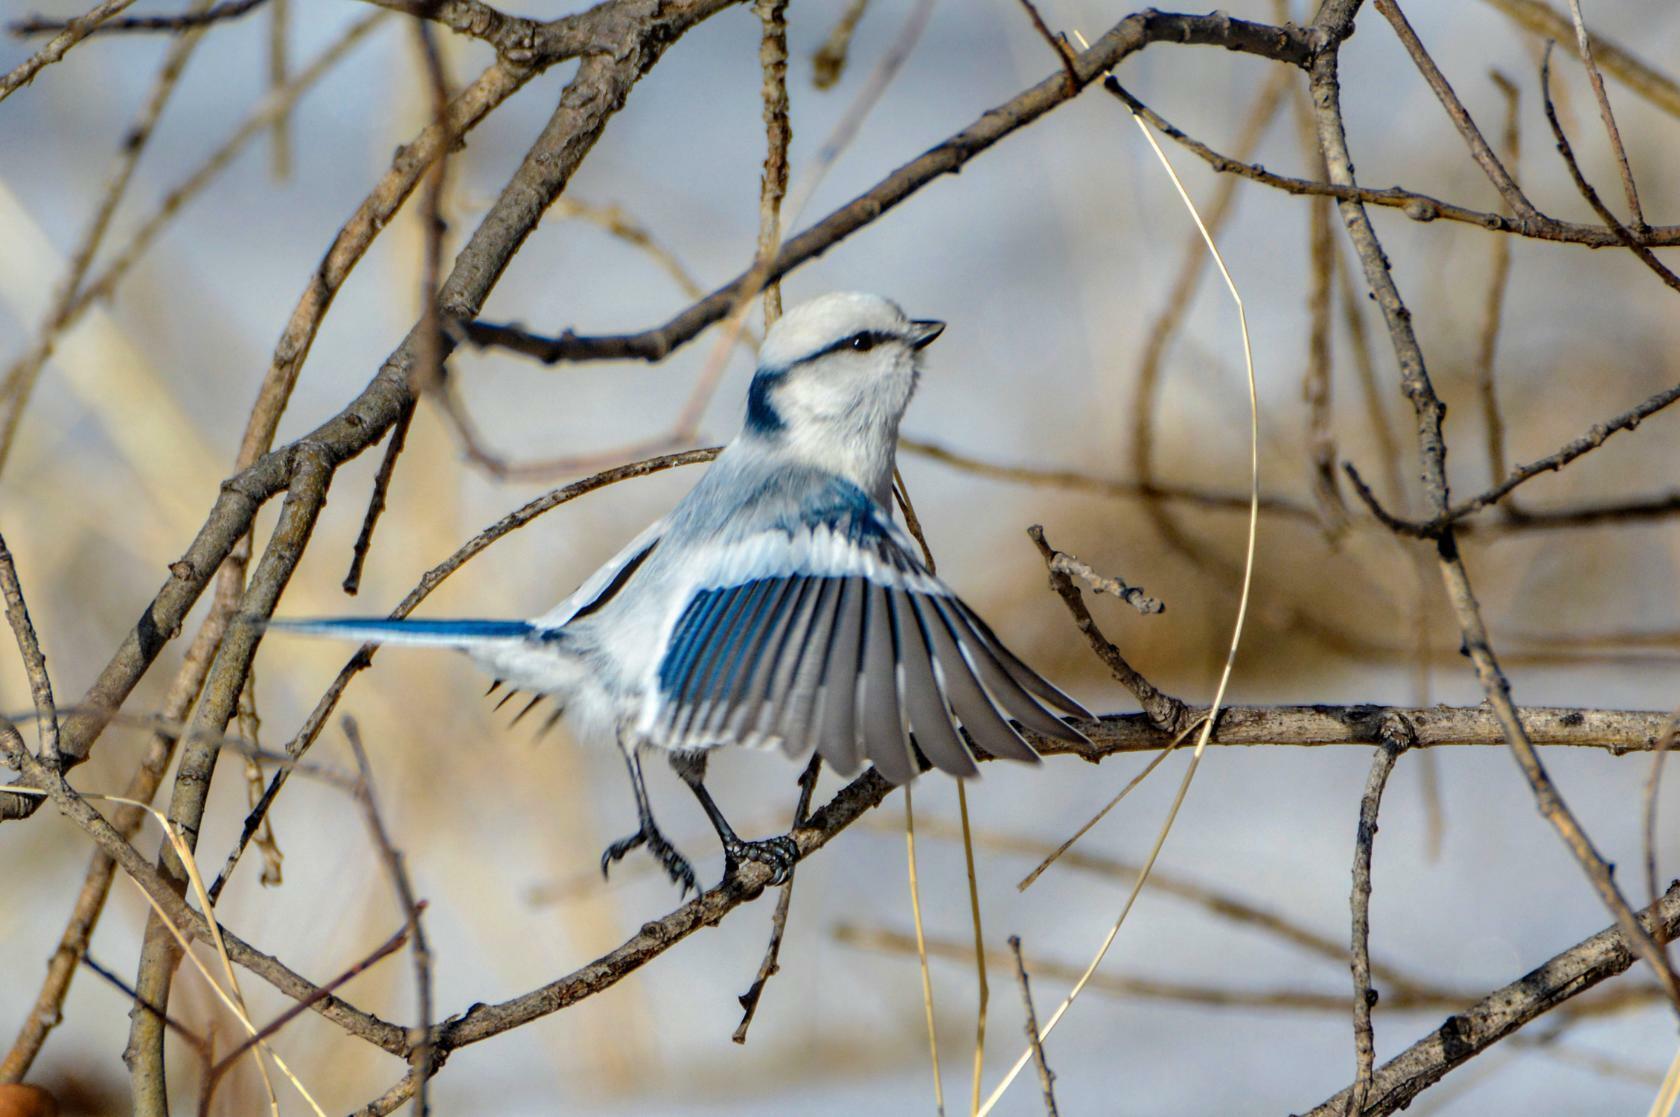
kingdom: Animalia
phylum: Chordata
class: Aves
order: Passeriformes
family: Paridae
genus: Cyanistes
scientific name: Cyanistes cyanus
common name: Azure tit
